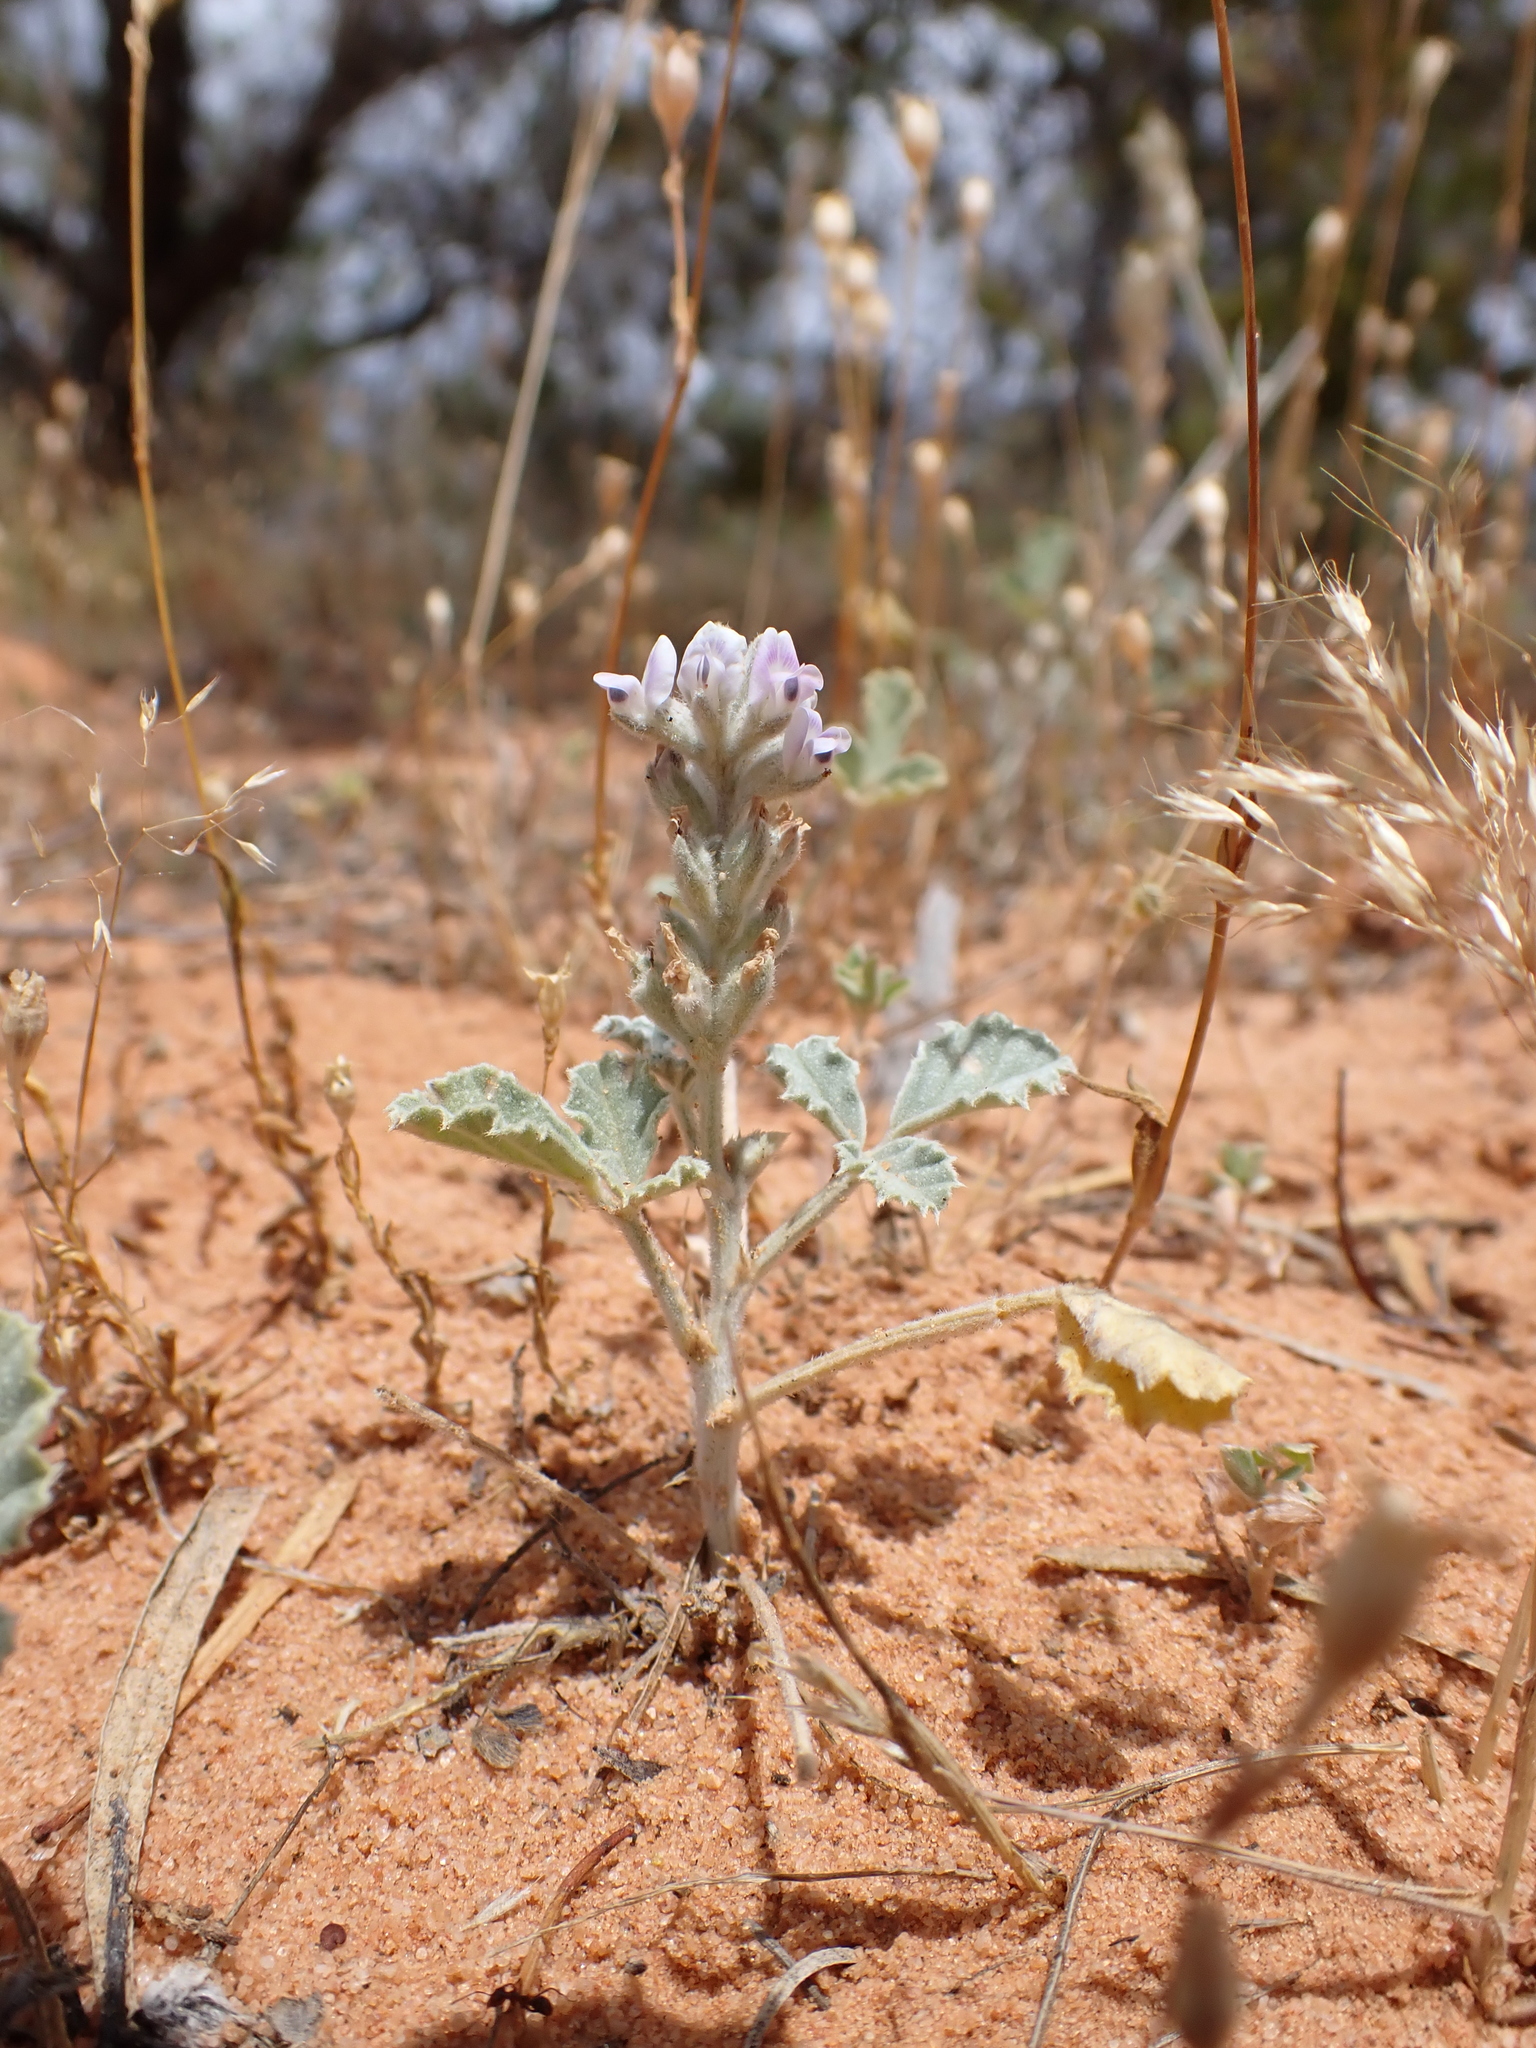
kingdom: Plantae
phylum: Tracheophyta
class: Magnoliopsida
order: Fabales
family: Fabaceae
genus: Cullen
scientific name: Cullen pallidum
